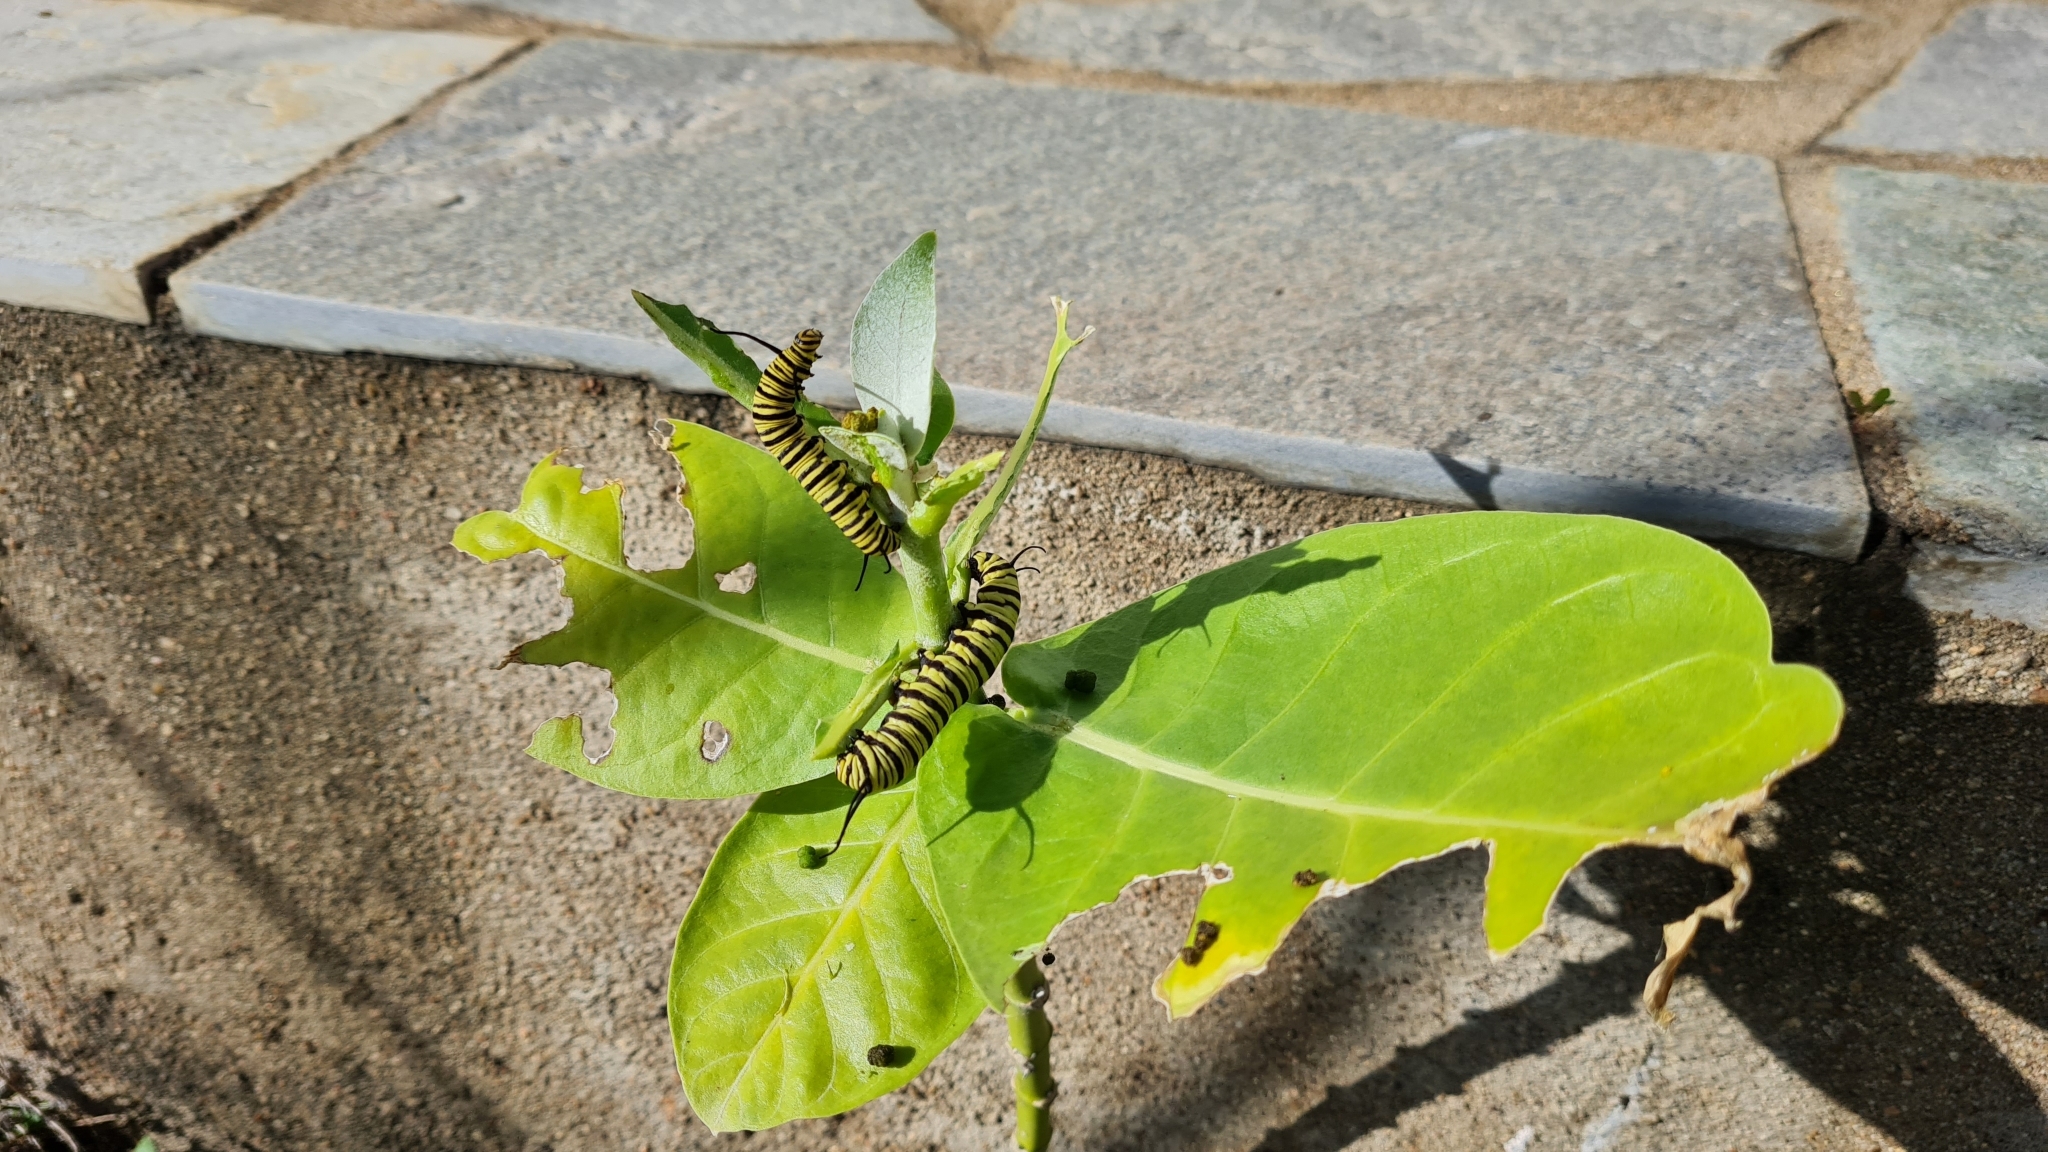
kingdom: Animalia
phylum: Arthropoda
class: Insecta
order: Lepidoptera
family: Nymphalidae
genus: Danaus
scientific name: Danaus erippus
